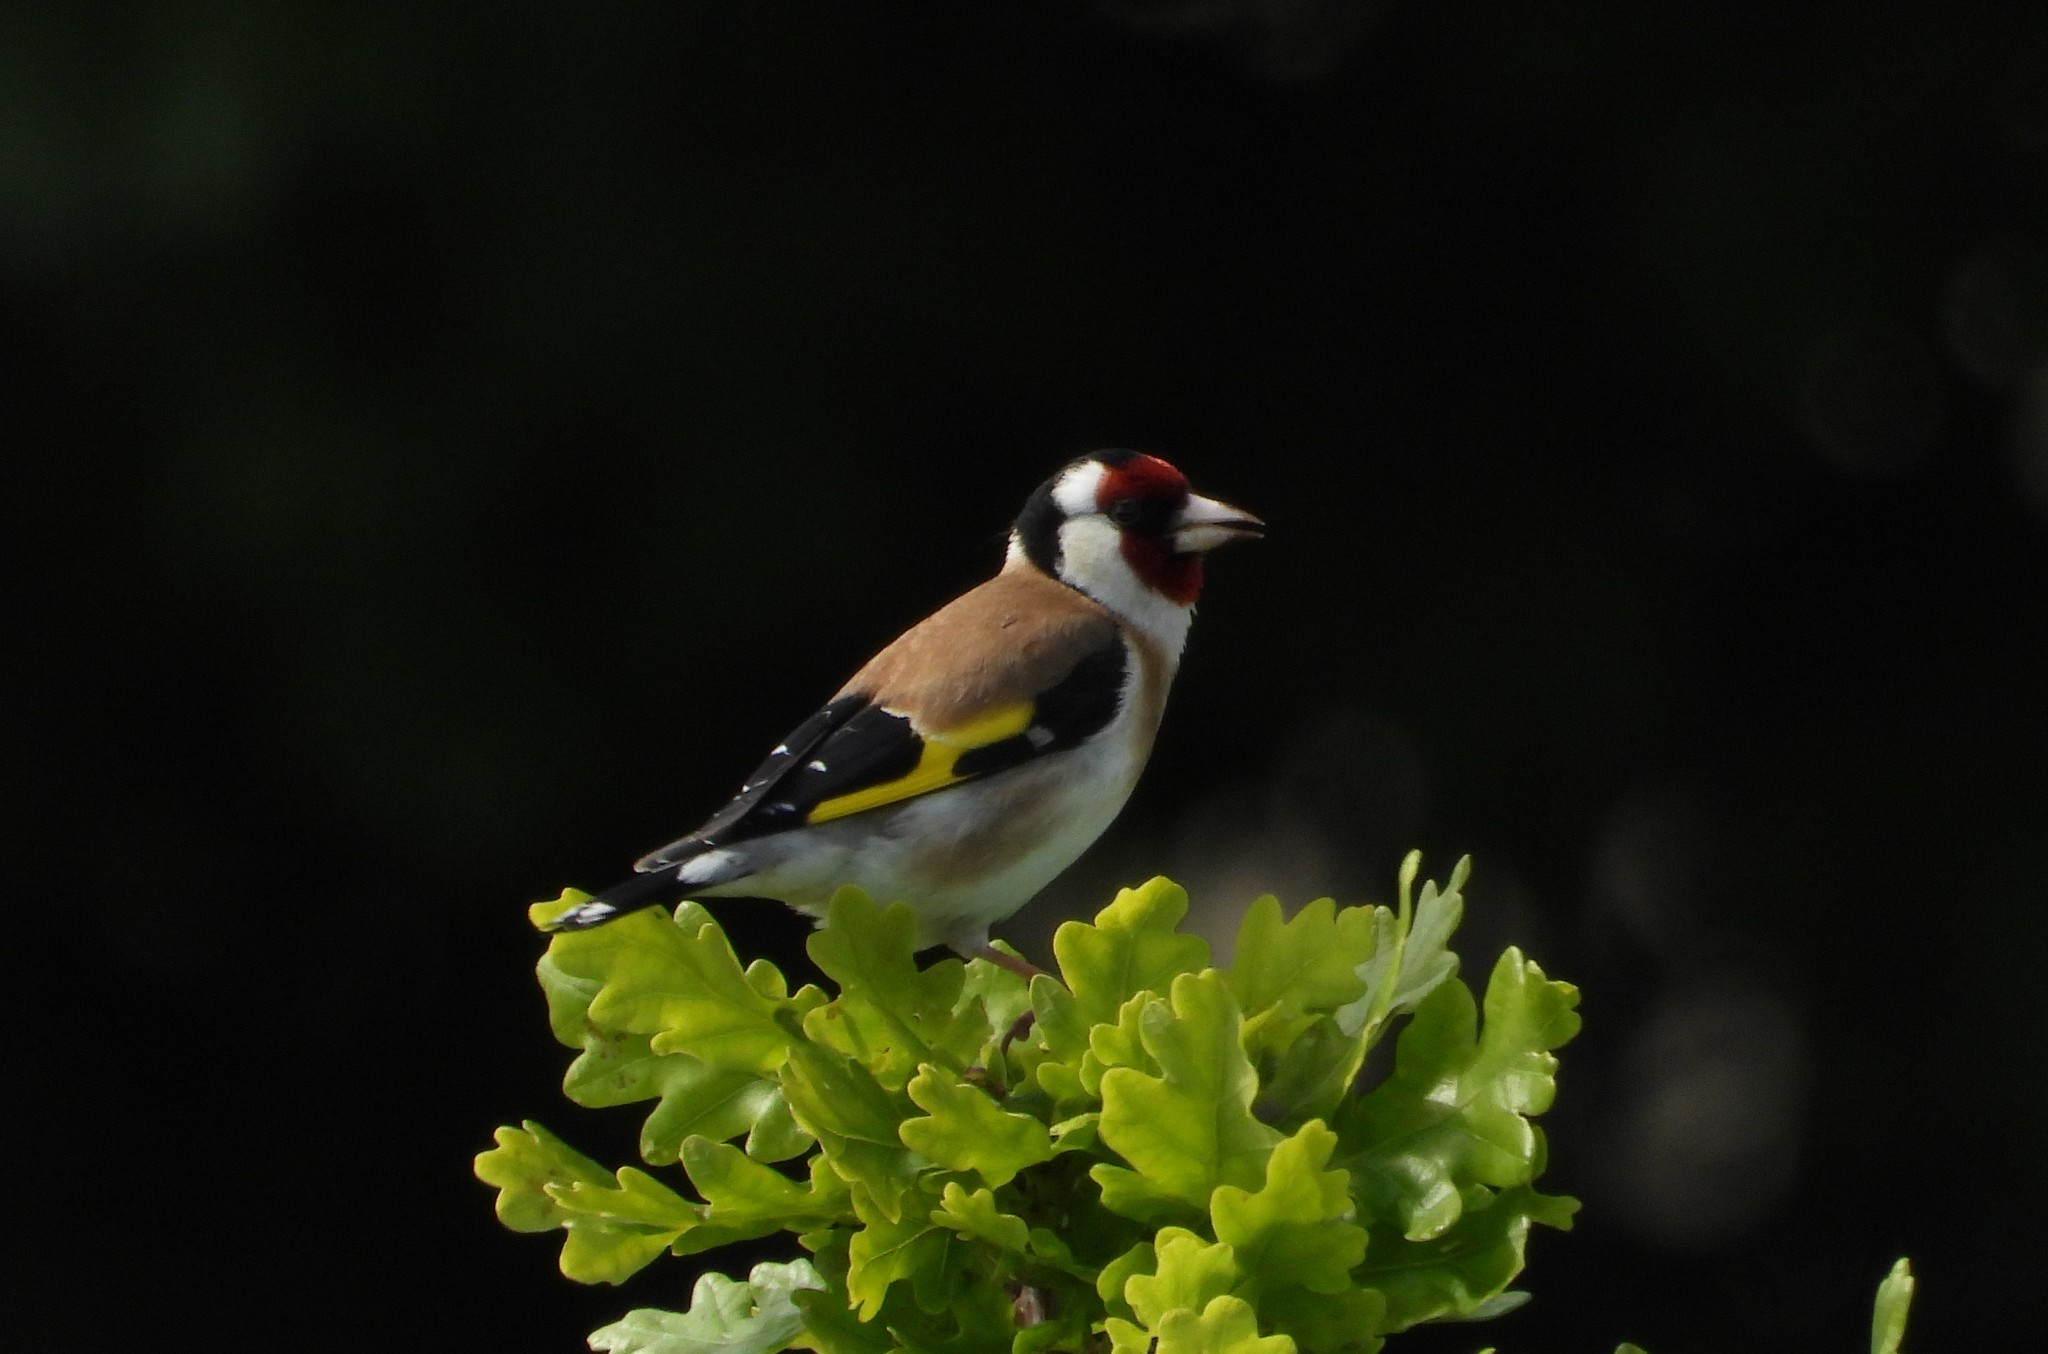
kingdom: Animalia
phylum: Chordata
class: Aves
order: Passeriformes
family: Fringillidae
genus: Carduelis
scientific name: Carduelis carduelis
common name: European goldfinch
